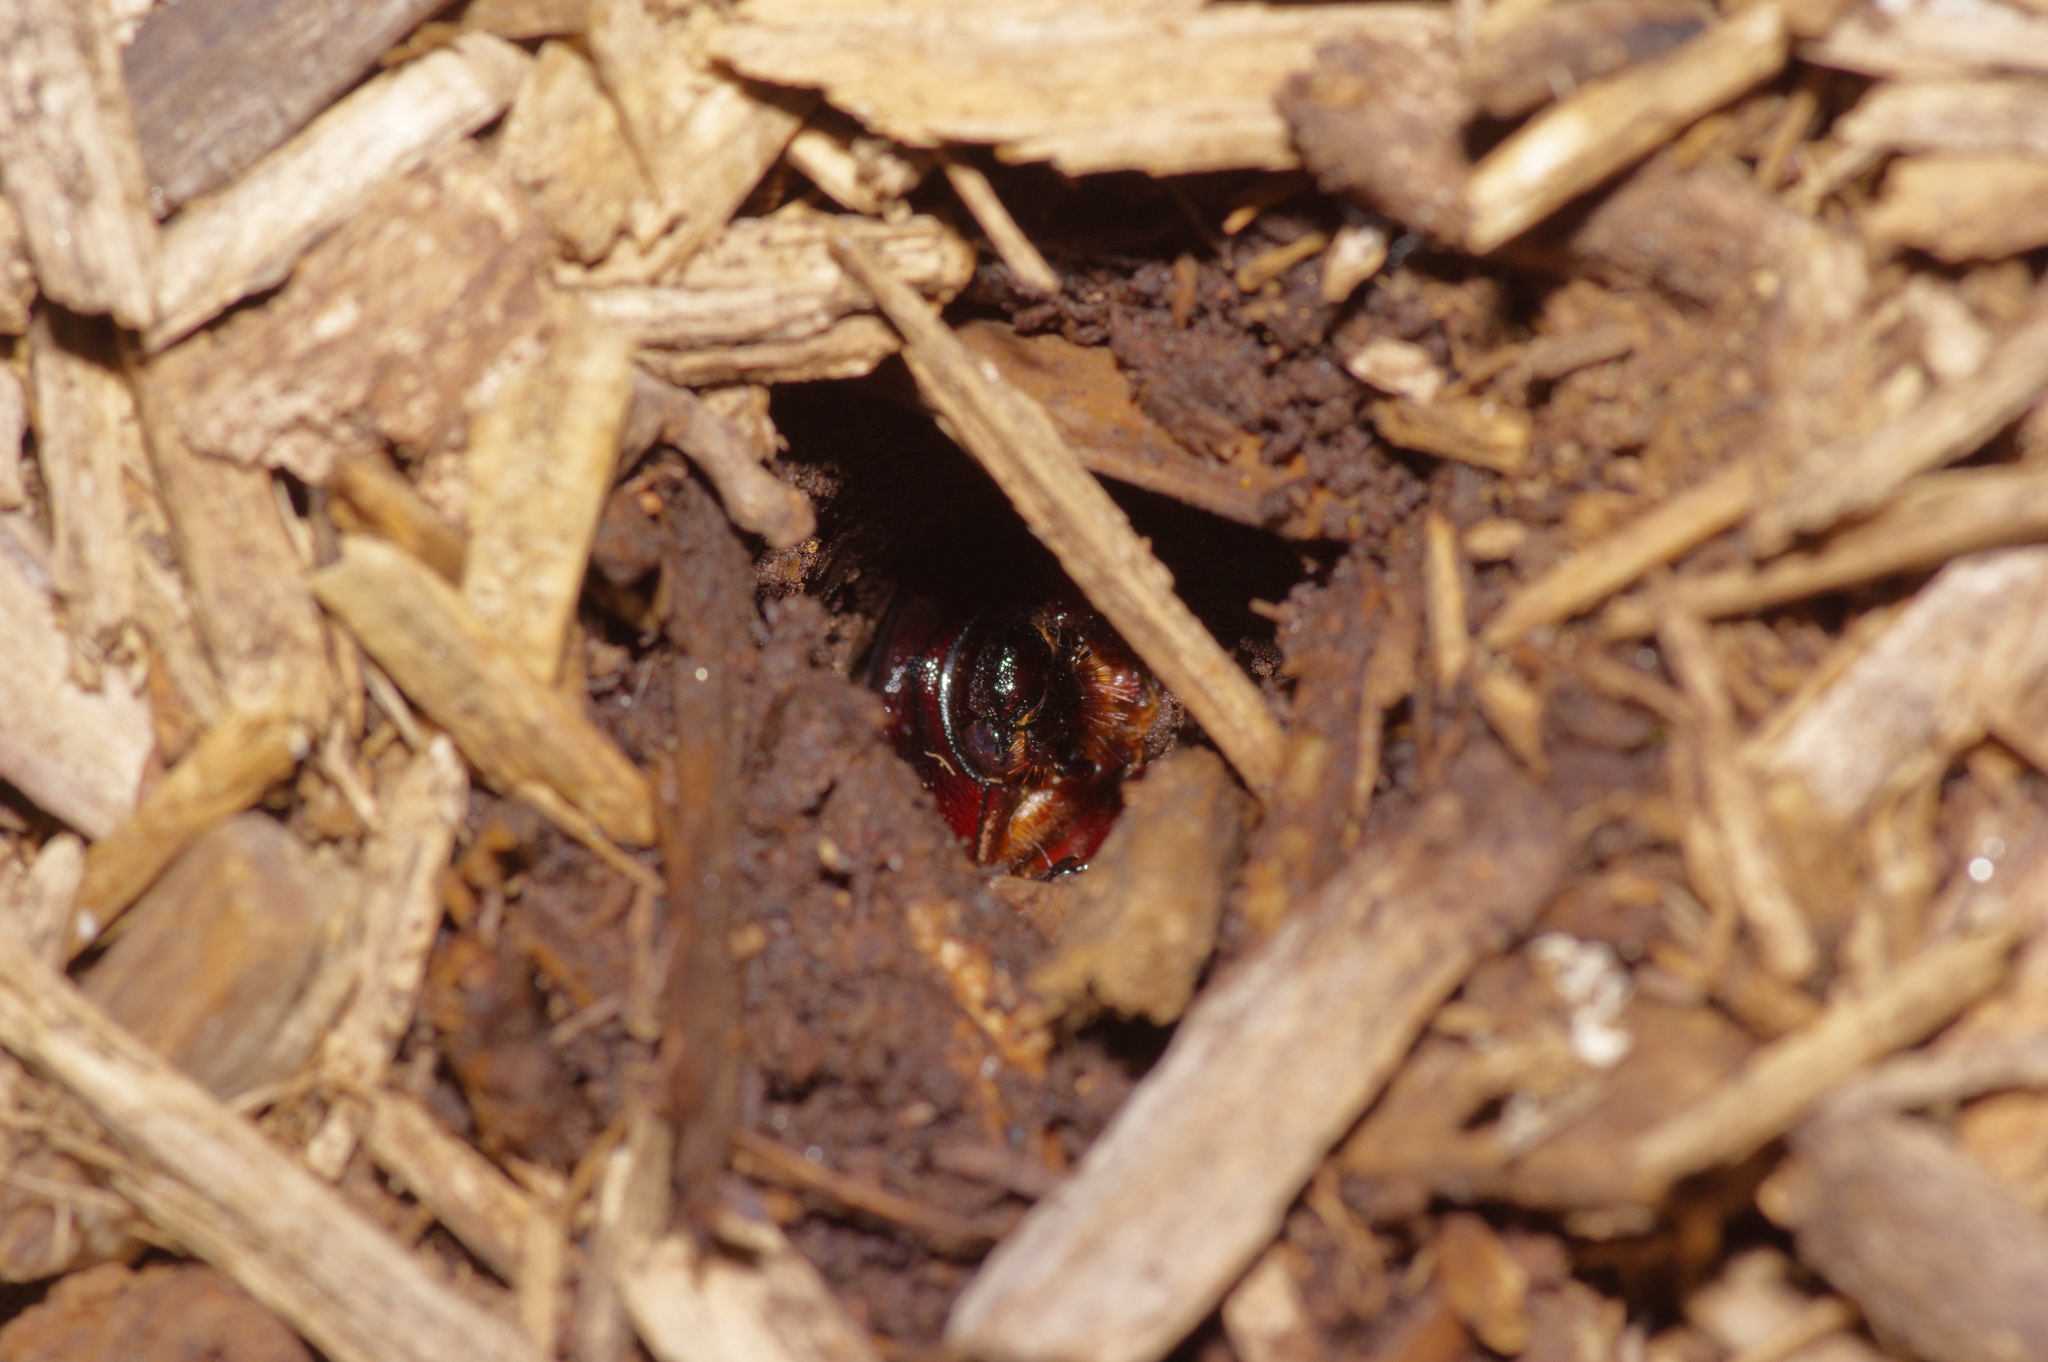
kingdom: Animalia
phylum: Arthropoda
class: Insecta
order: Coleoptera
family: Scarabaeidae
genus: Strategus
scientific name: Strategus aloeus
